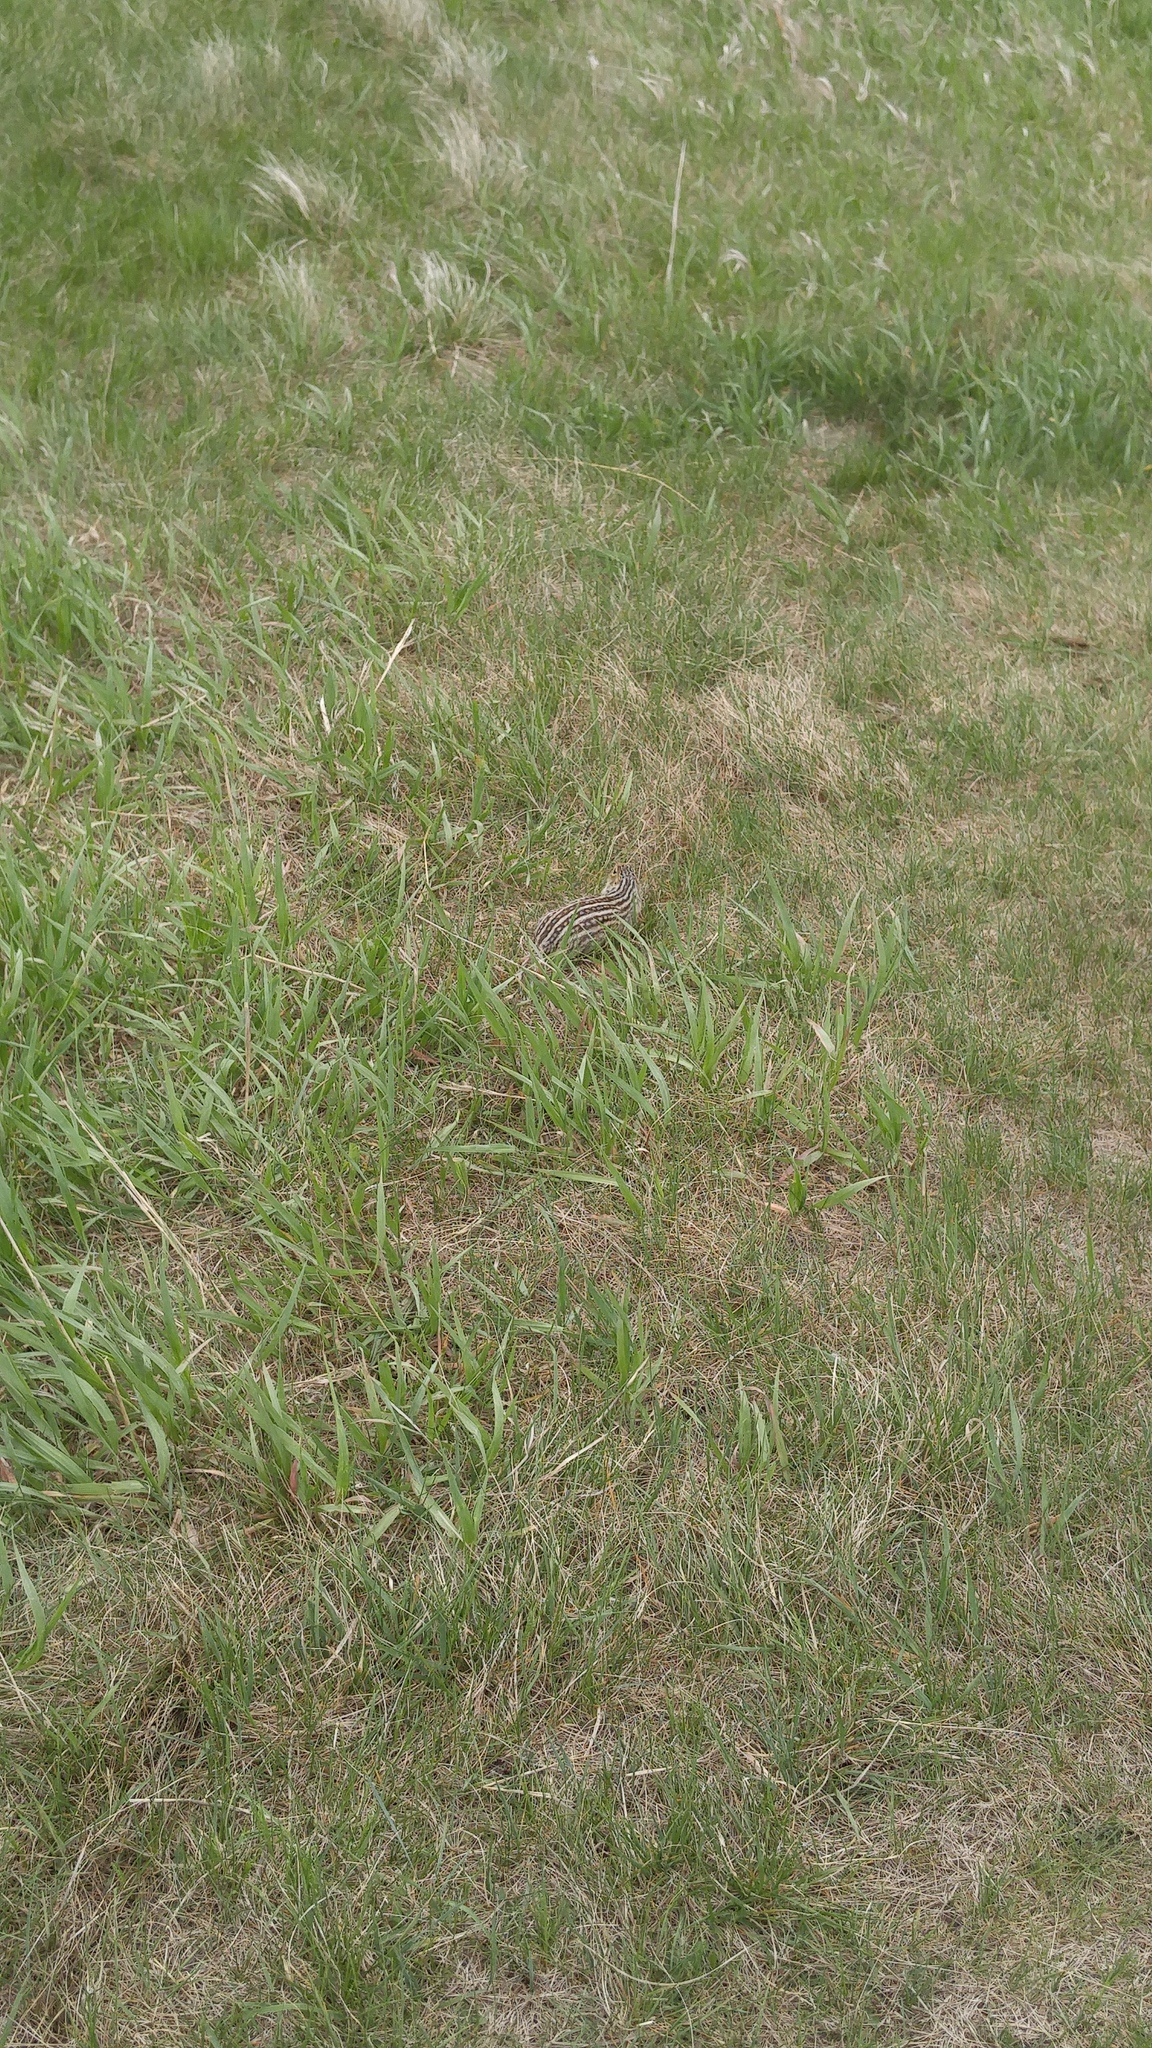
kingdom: Animalia
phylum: Chordata
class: Mammalia
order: Rodentia
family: Sciuridae
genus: Ictidomys
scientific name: Ictidomys tridecemlineatus
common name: Thirteen-lined ground squirrel
